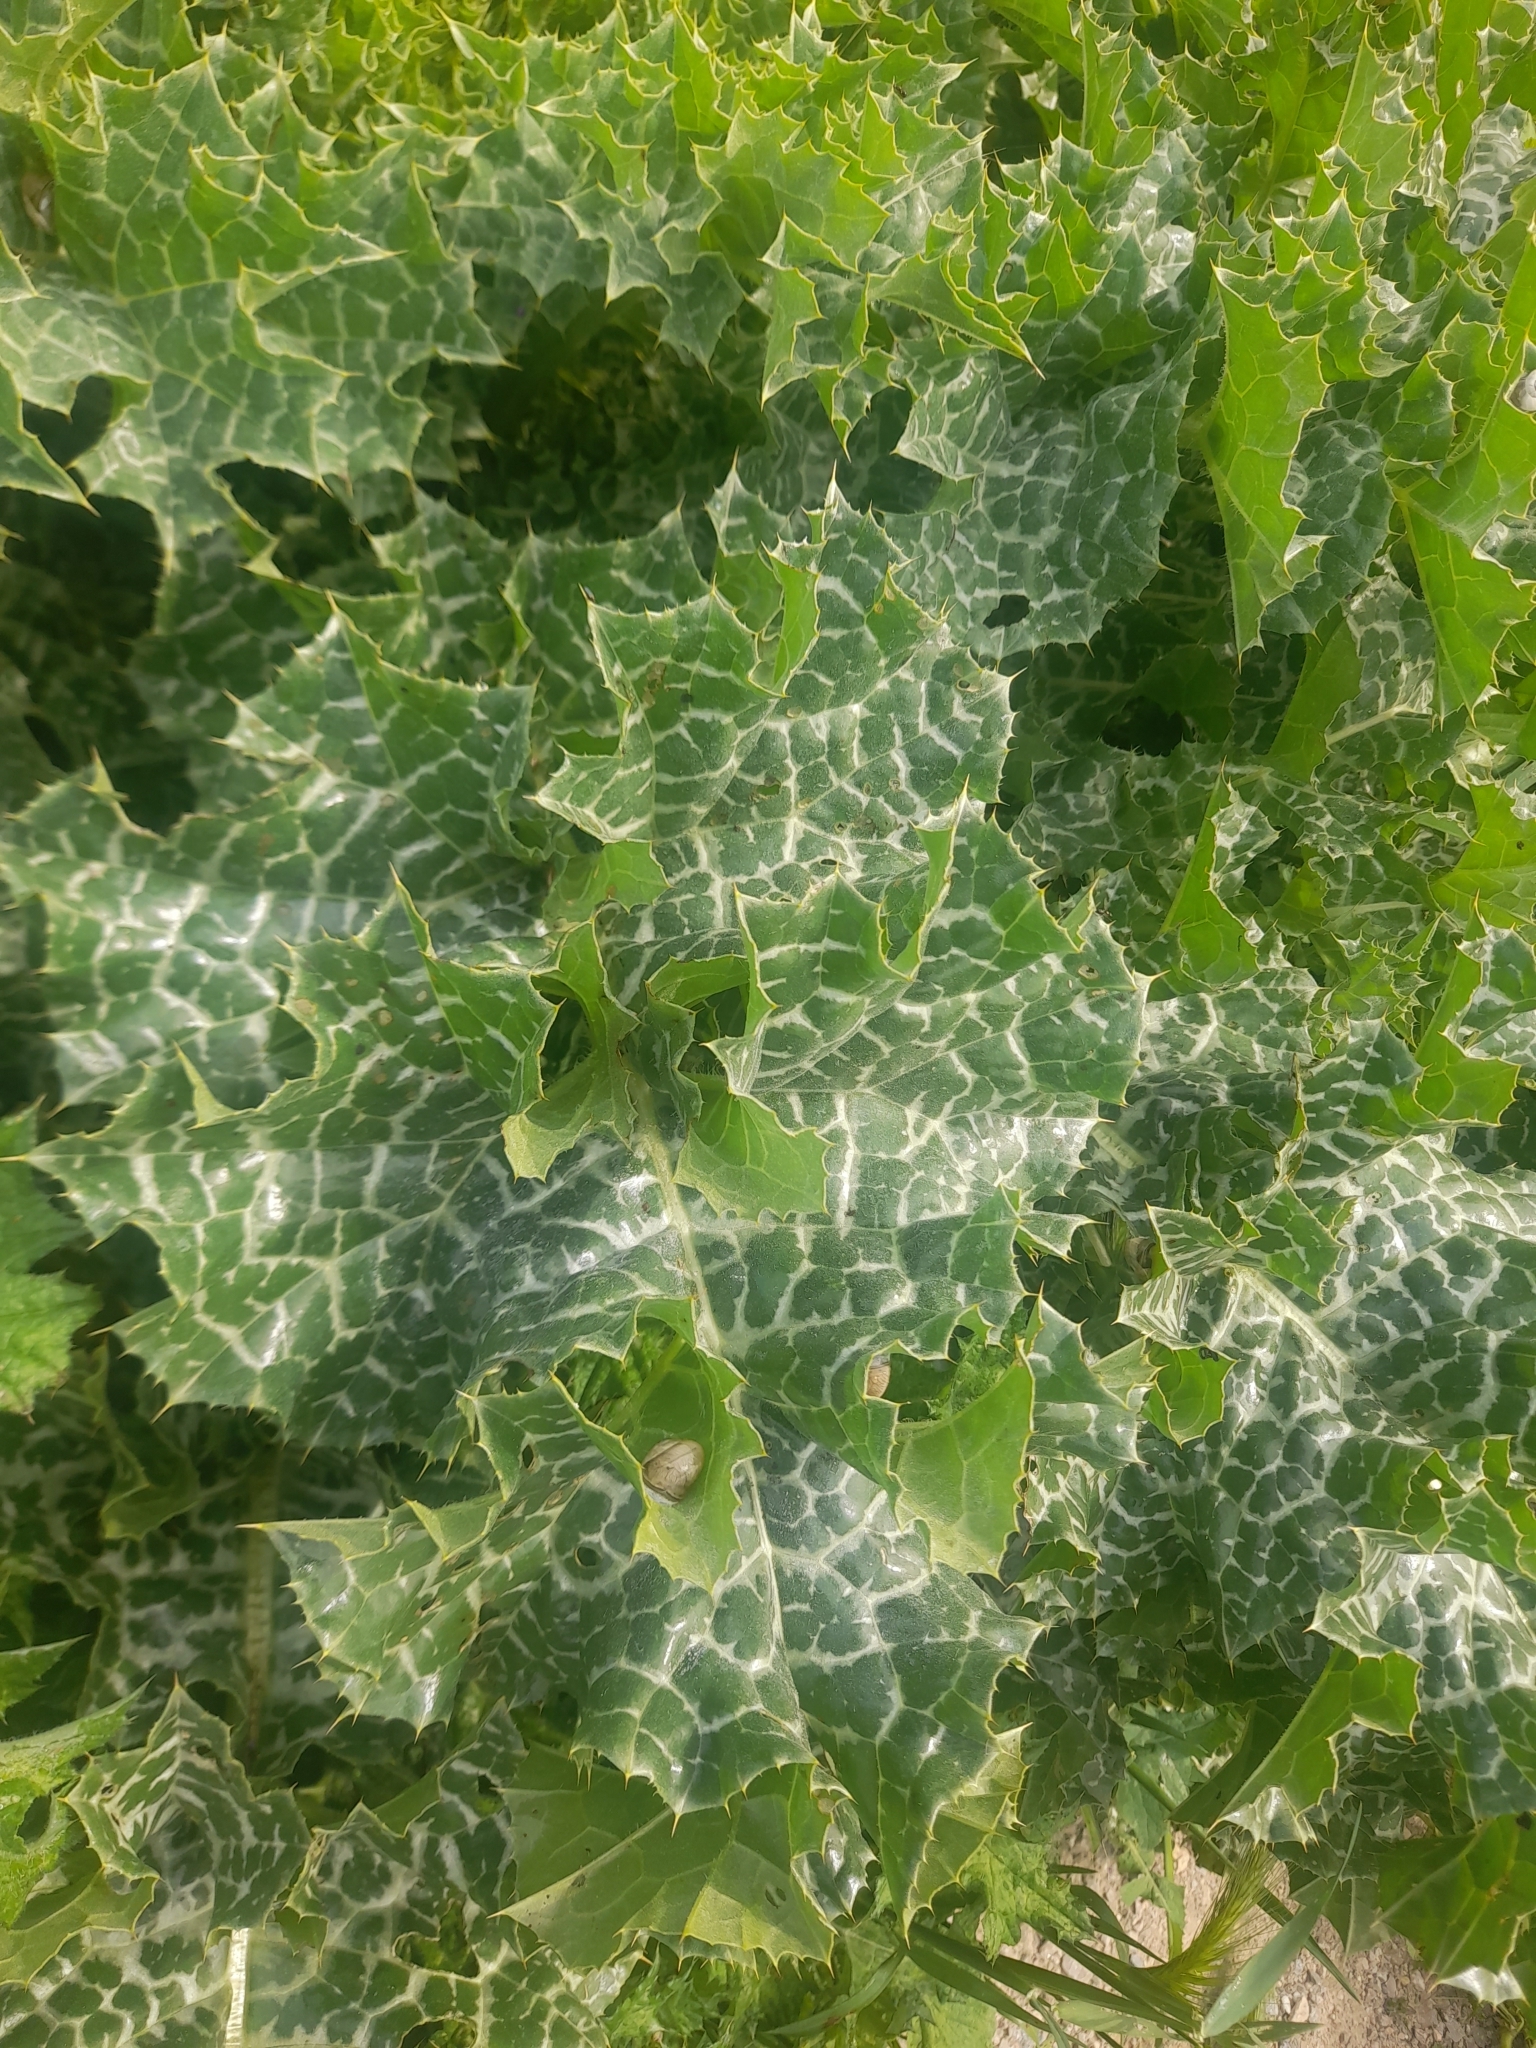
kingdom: Plantae
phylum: Tracheophyta
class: Magnoliopsida
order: Asterales
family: Asteraceae
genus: Silybum
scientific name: Silybum marianum
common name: Milk thistle
